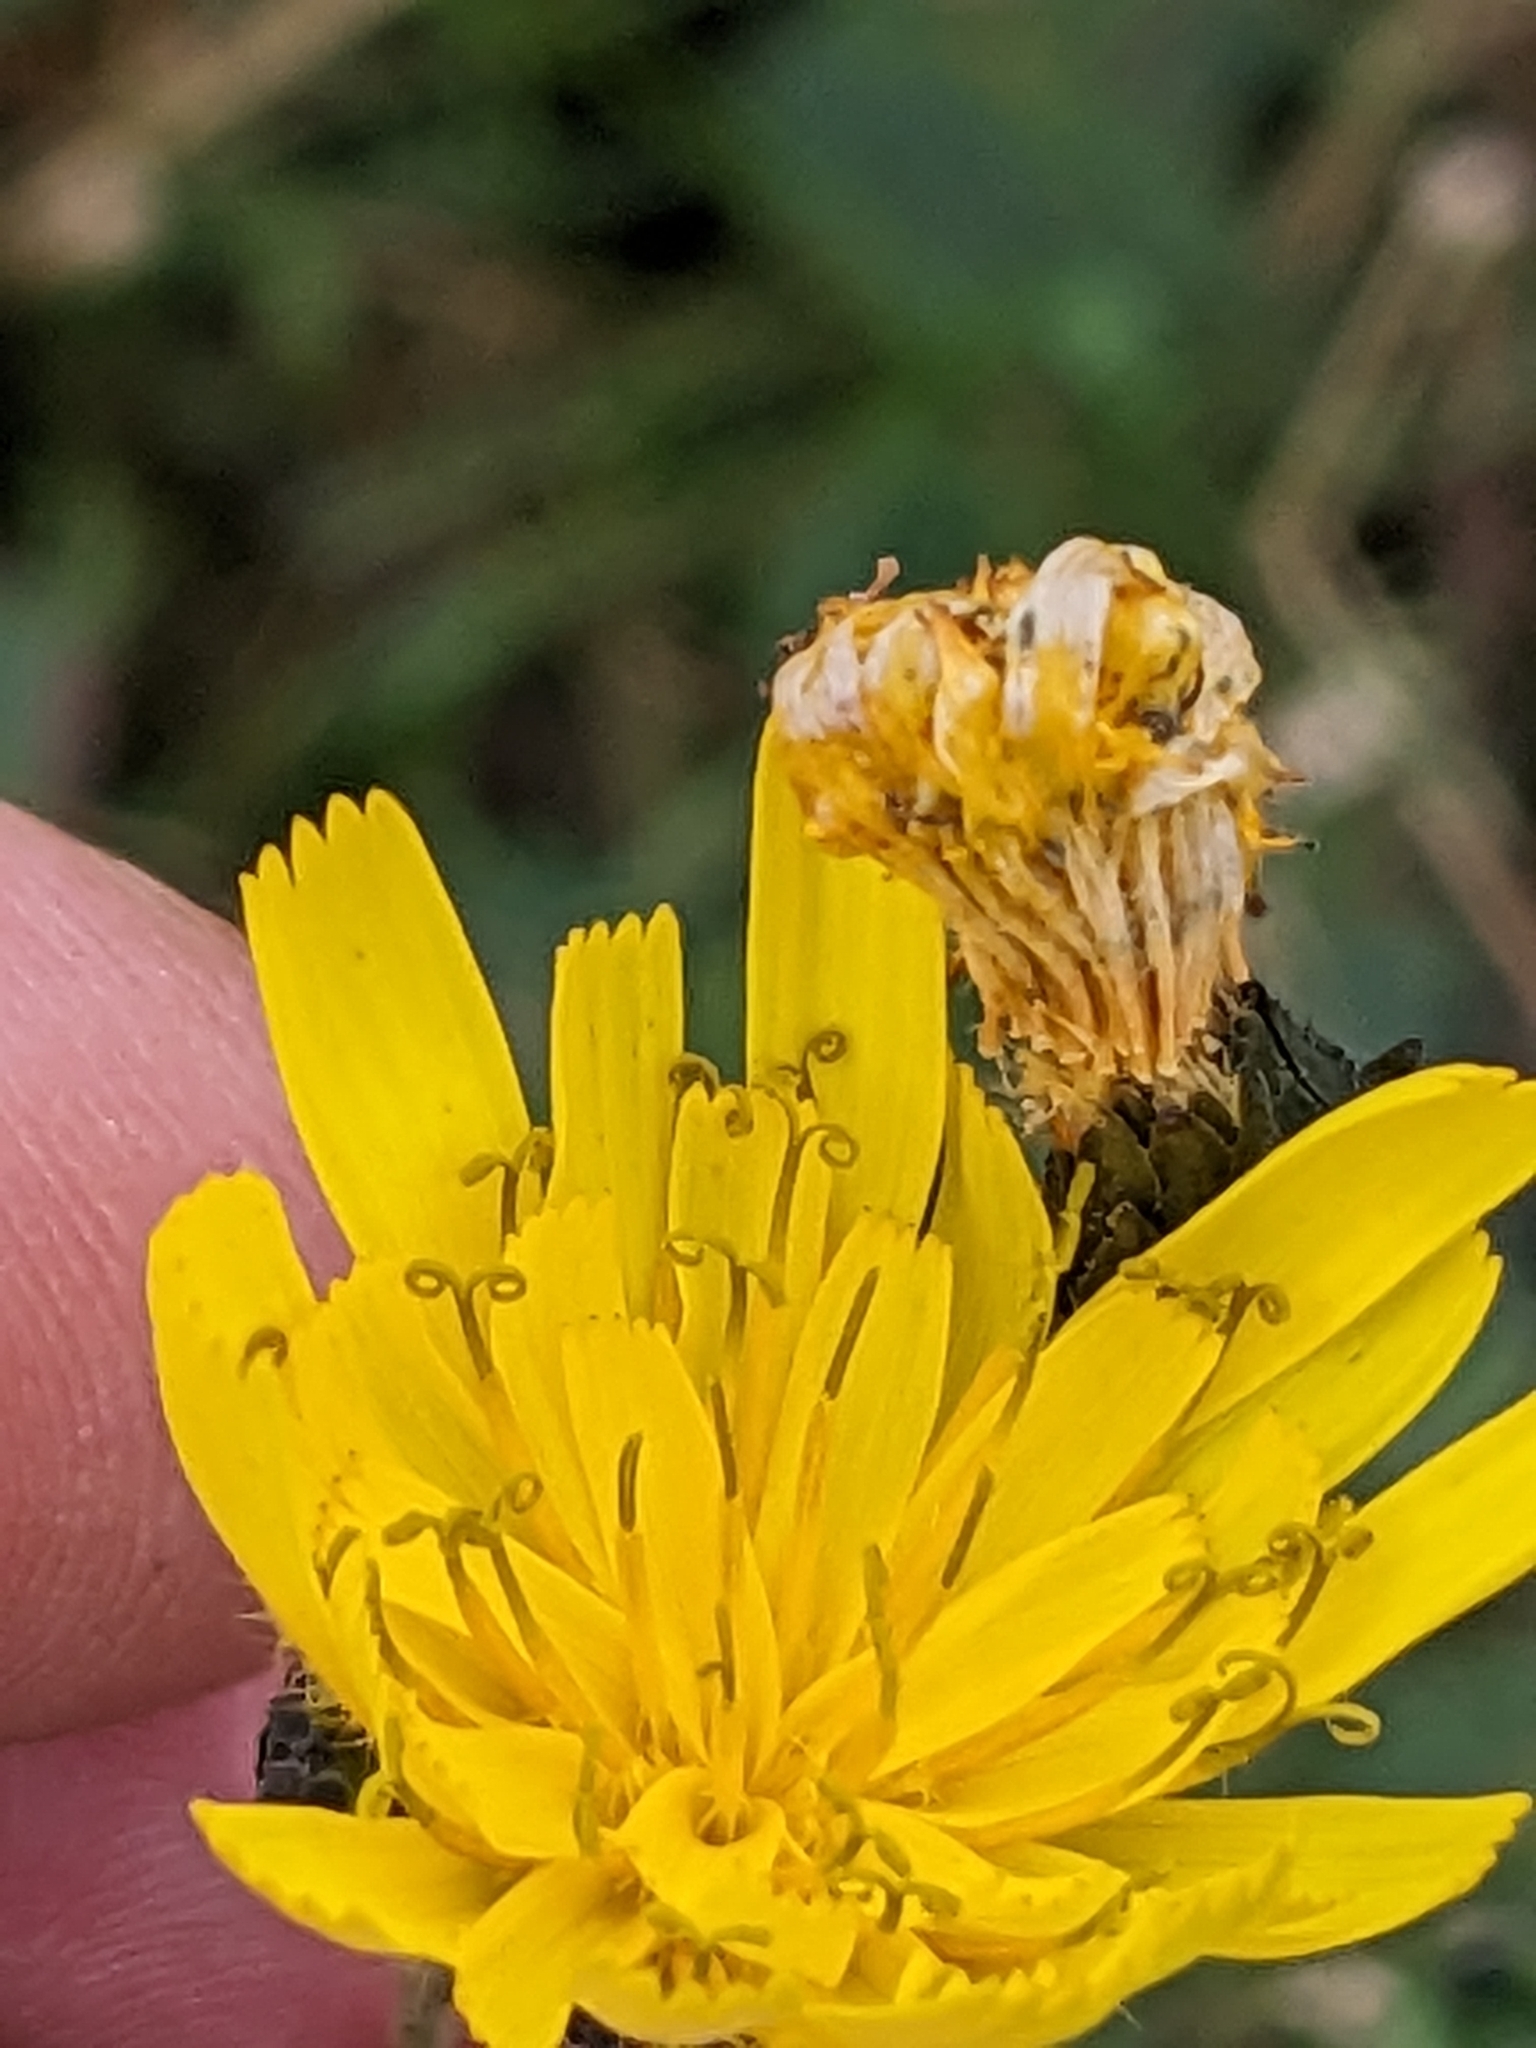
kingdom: Plantae
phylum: Tracheophyta
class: Magnoliopsida
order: Asterales
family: Asteraceae
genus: Hieracium
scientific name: Hieracium sabaudum
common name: New england hawkweed
